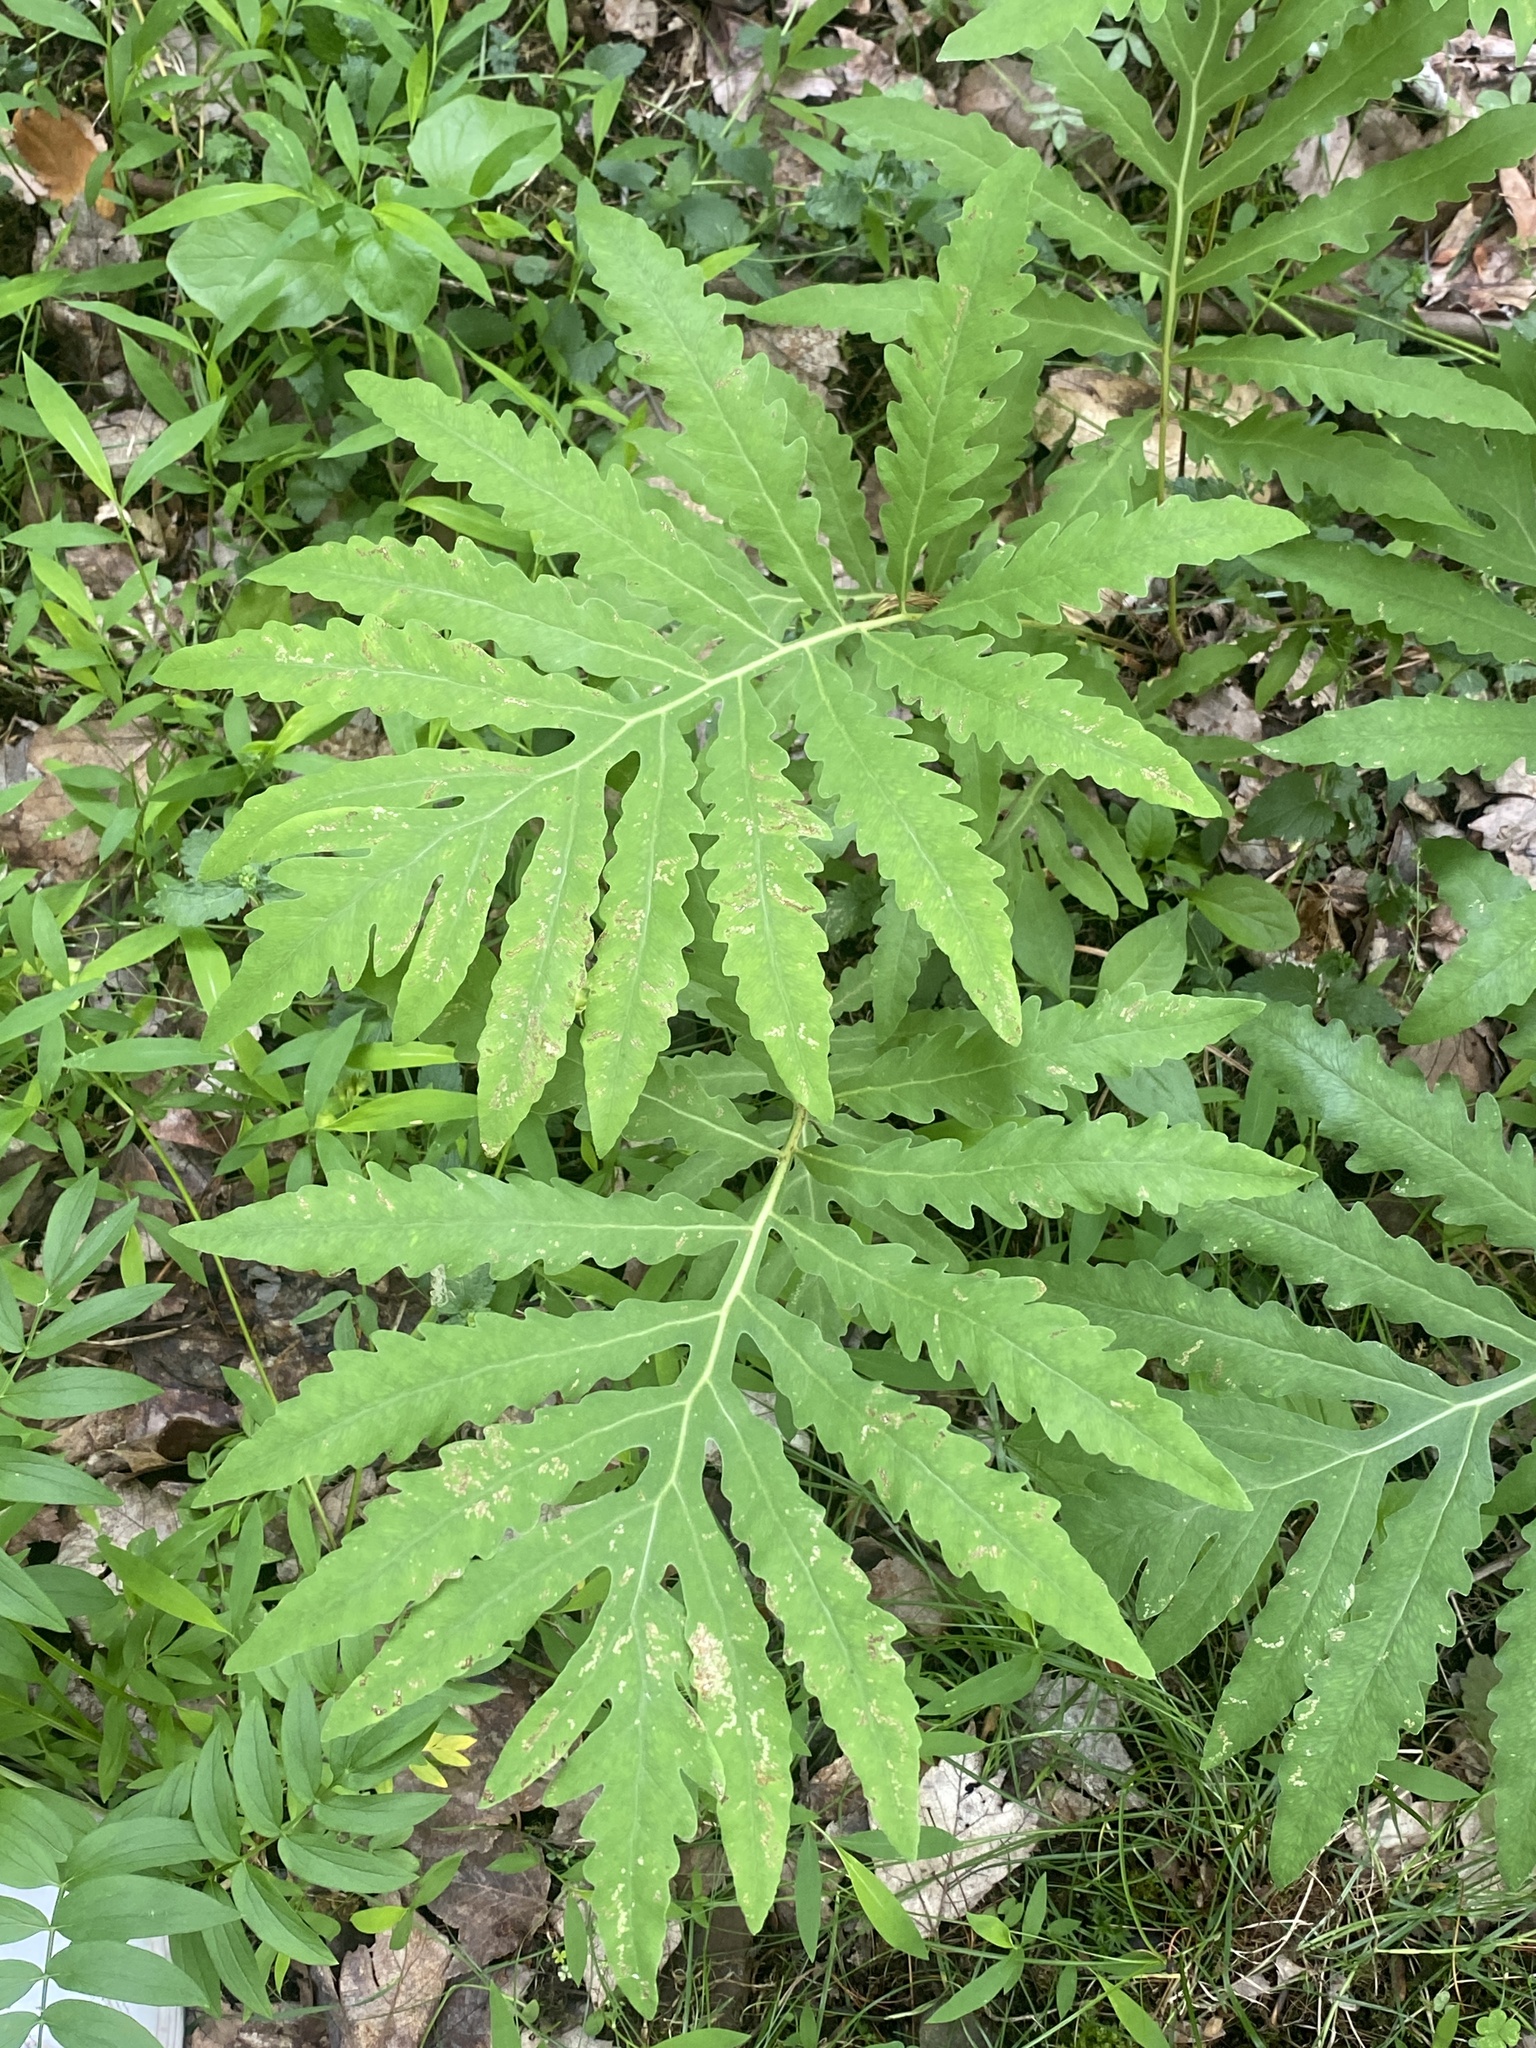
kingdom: Plantae
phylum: Tracheophyta
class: Polypodiopsida
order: Polypodiales
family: Onocleaceae
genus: Onoclea
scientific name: Onoclea sensibilis
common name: Sensitive fern
